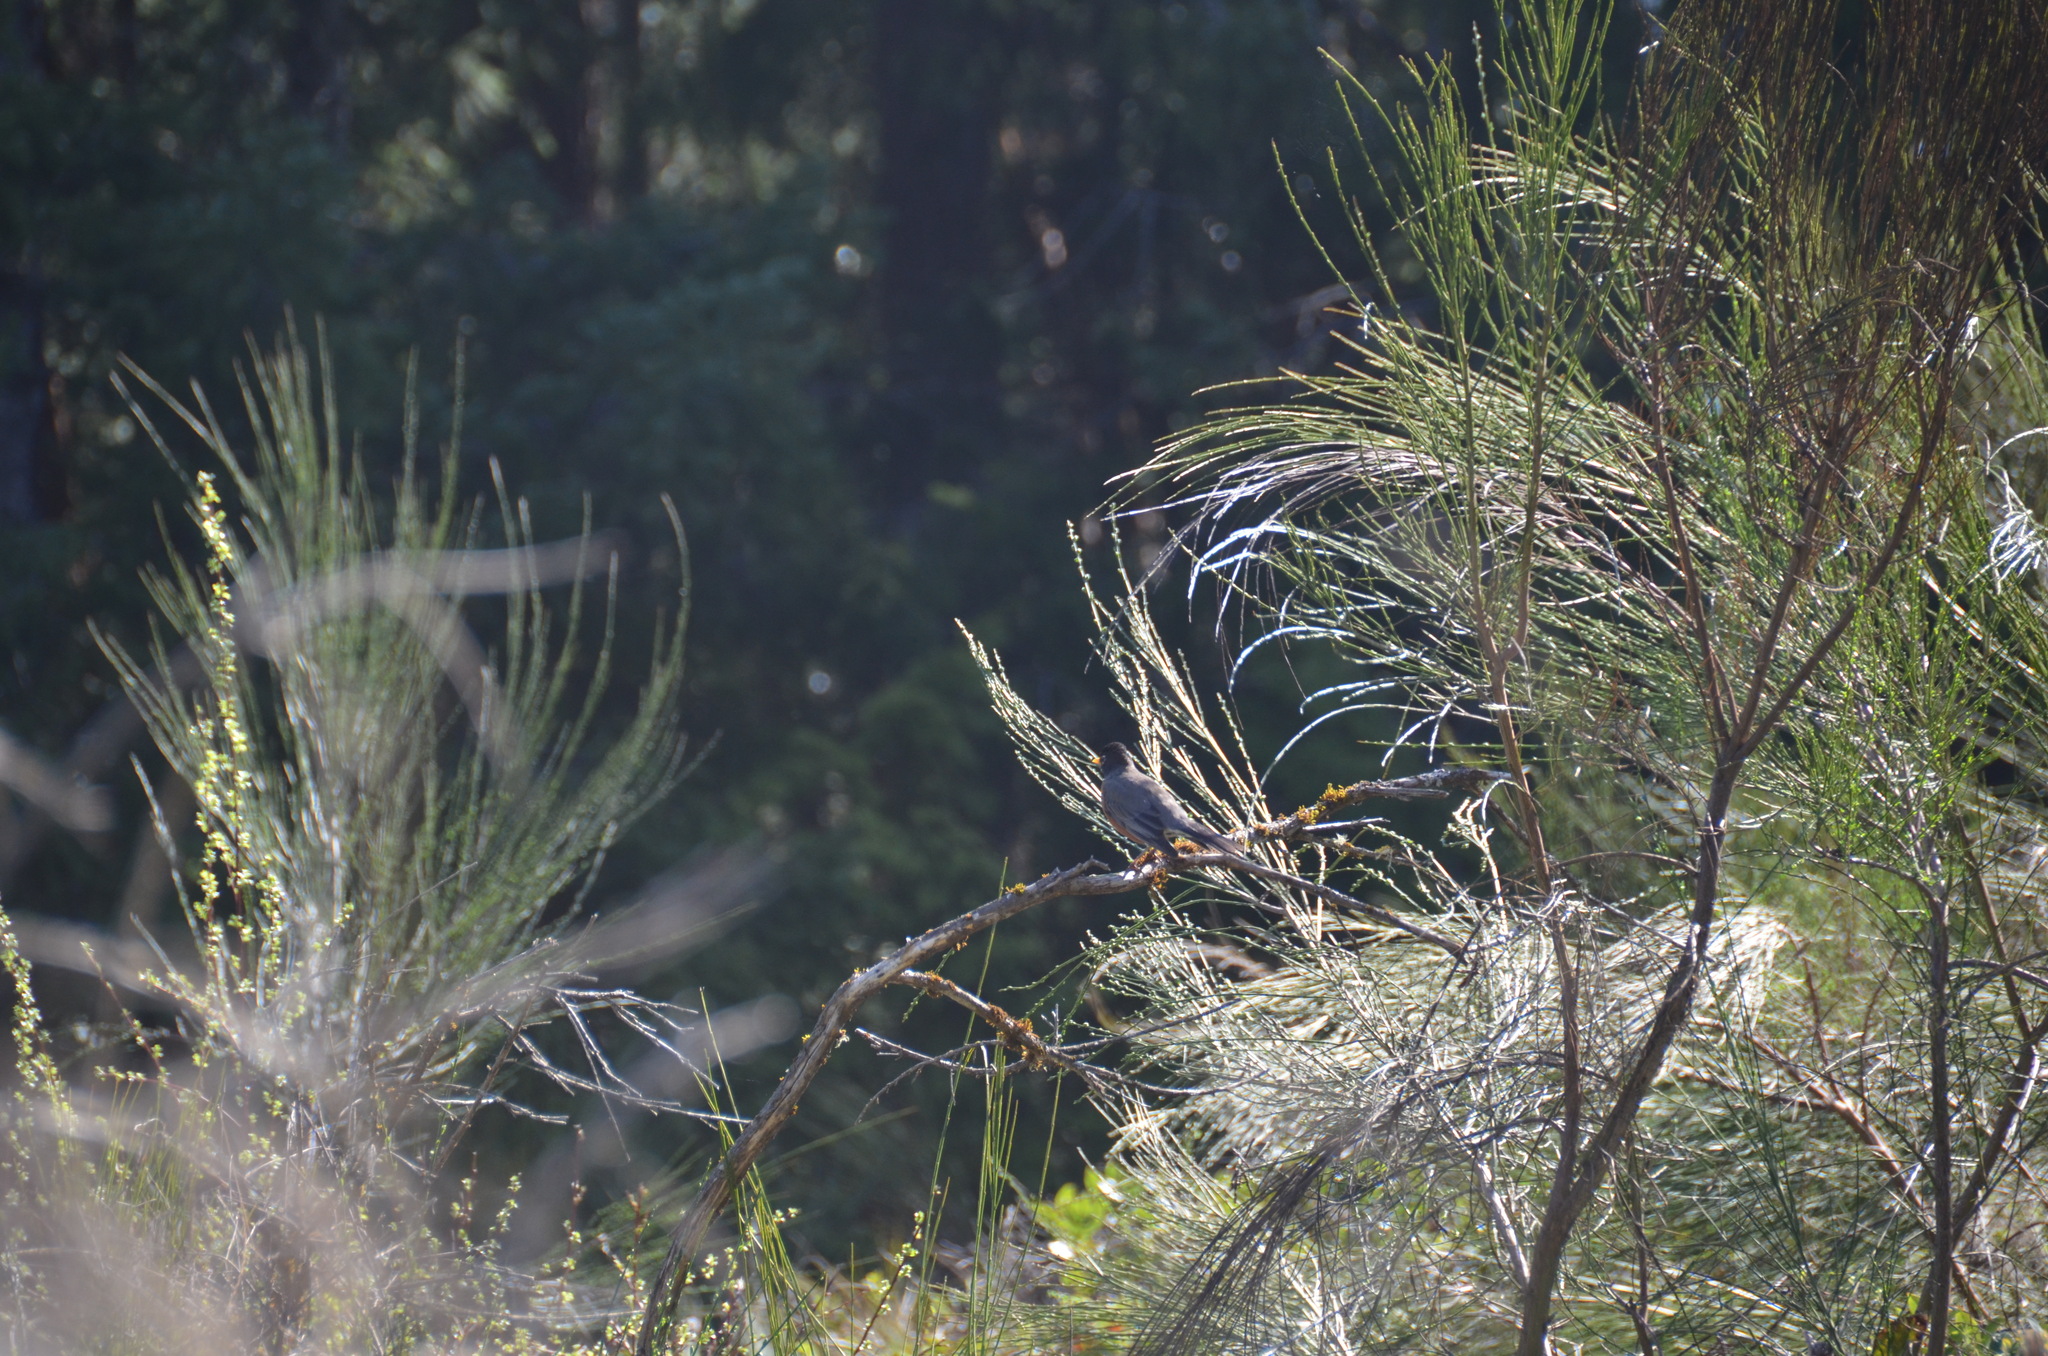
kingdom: Animalia
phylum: Chordata
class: Aves
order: Passeriformes
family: Turdidae
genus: Turdus
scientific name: Turdus migratorius
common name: American robin
